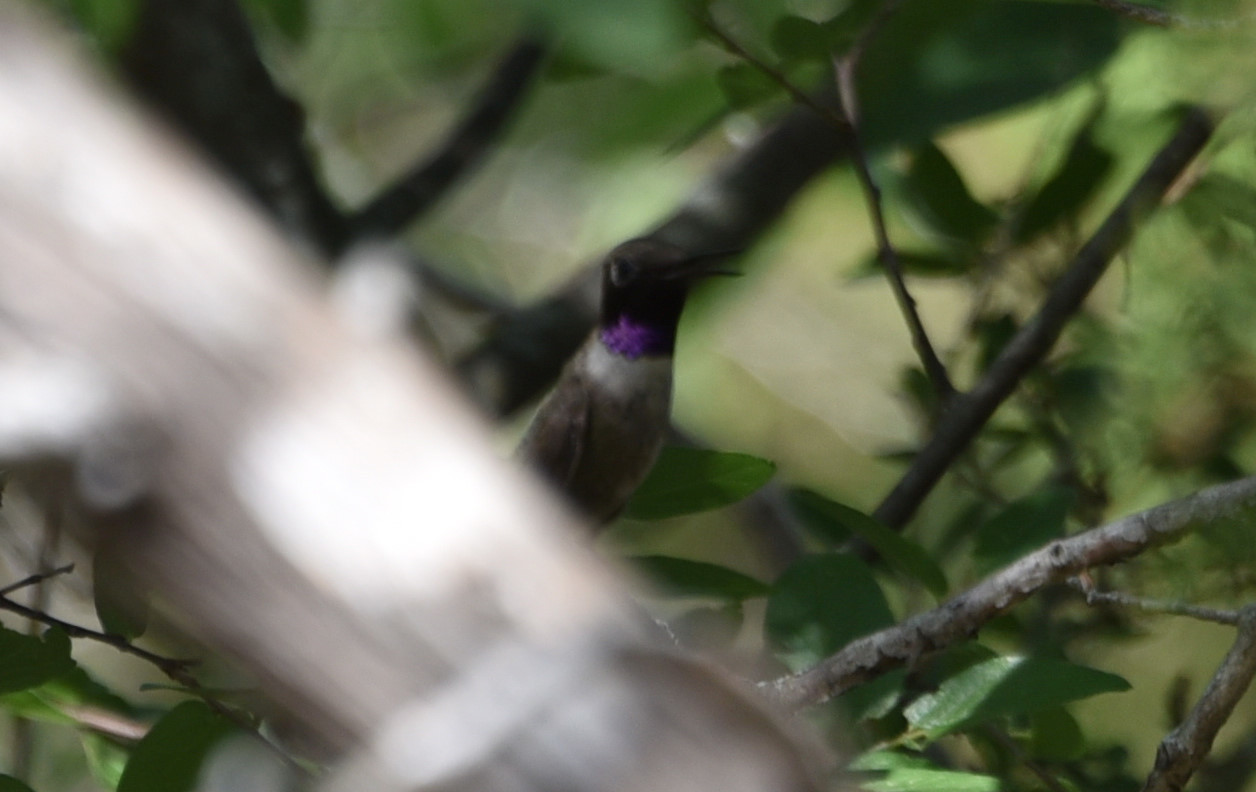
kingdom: Animalia
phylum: Chordata
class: Aves
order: Apodiformes
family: Trochilidae
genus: Archilochus
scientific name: Archilochus alexandri
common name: Black-chinned hummingbird
